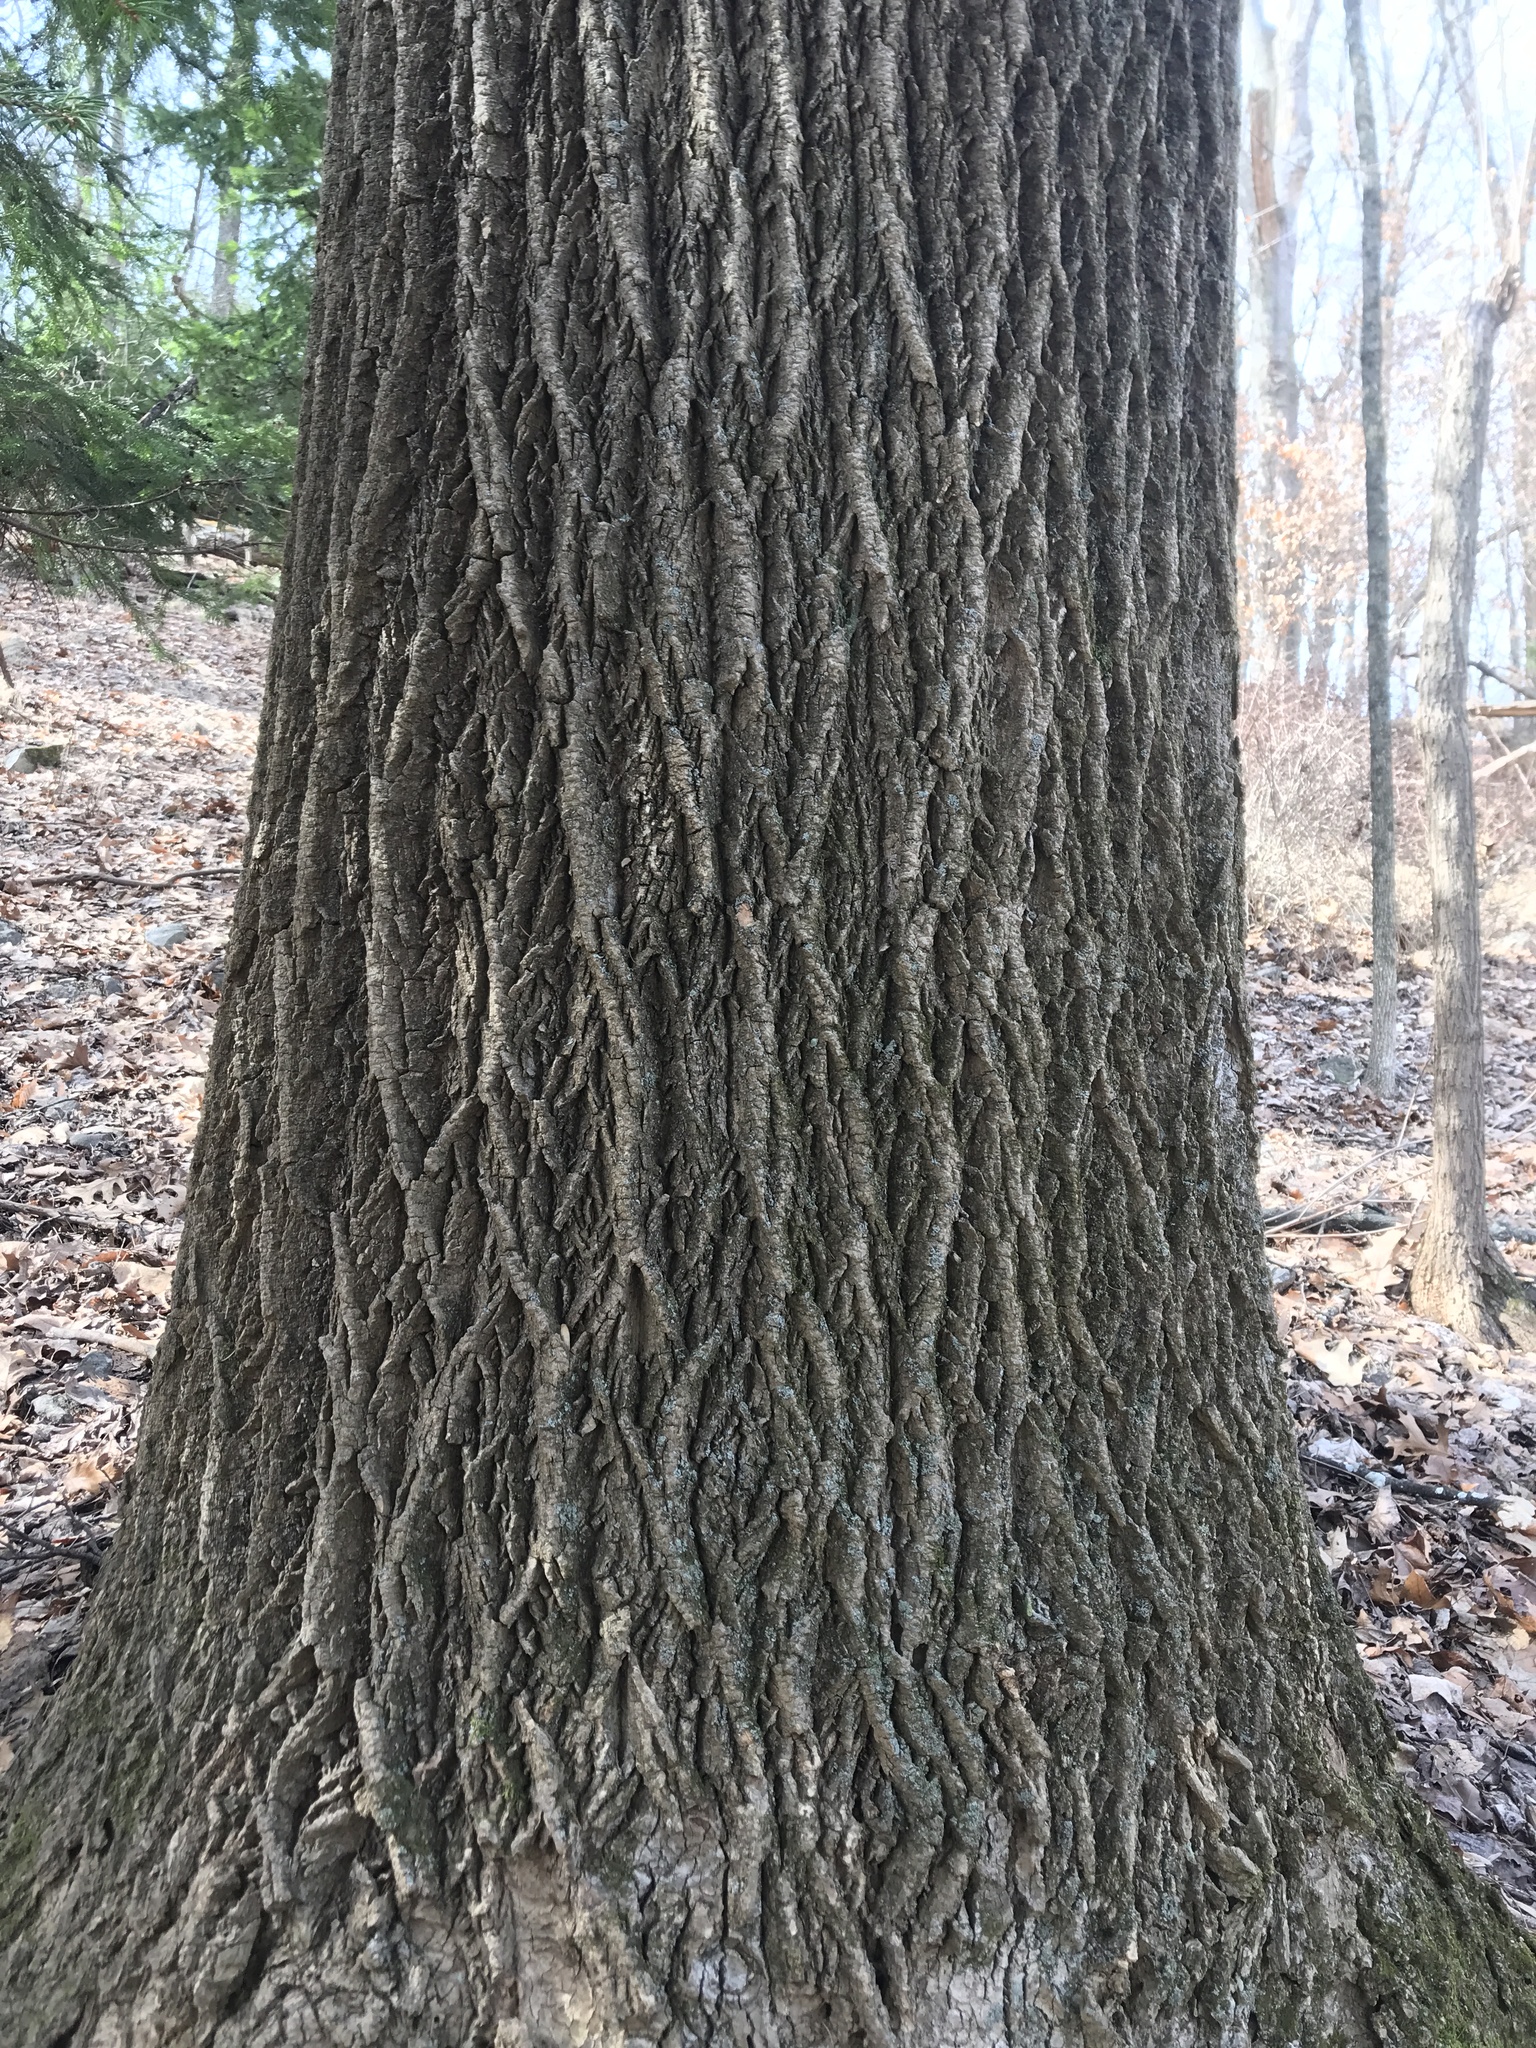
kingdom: Plantae
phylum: Tracheophyta
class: Magnoliopsida
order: Magnoliales
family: Magnoliaceae
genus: Liriodendron
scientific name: Liriodendron tulipifera
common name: Tulip tree
